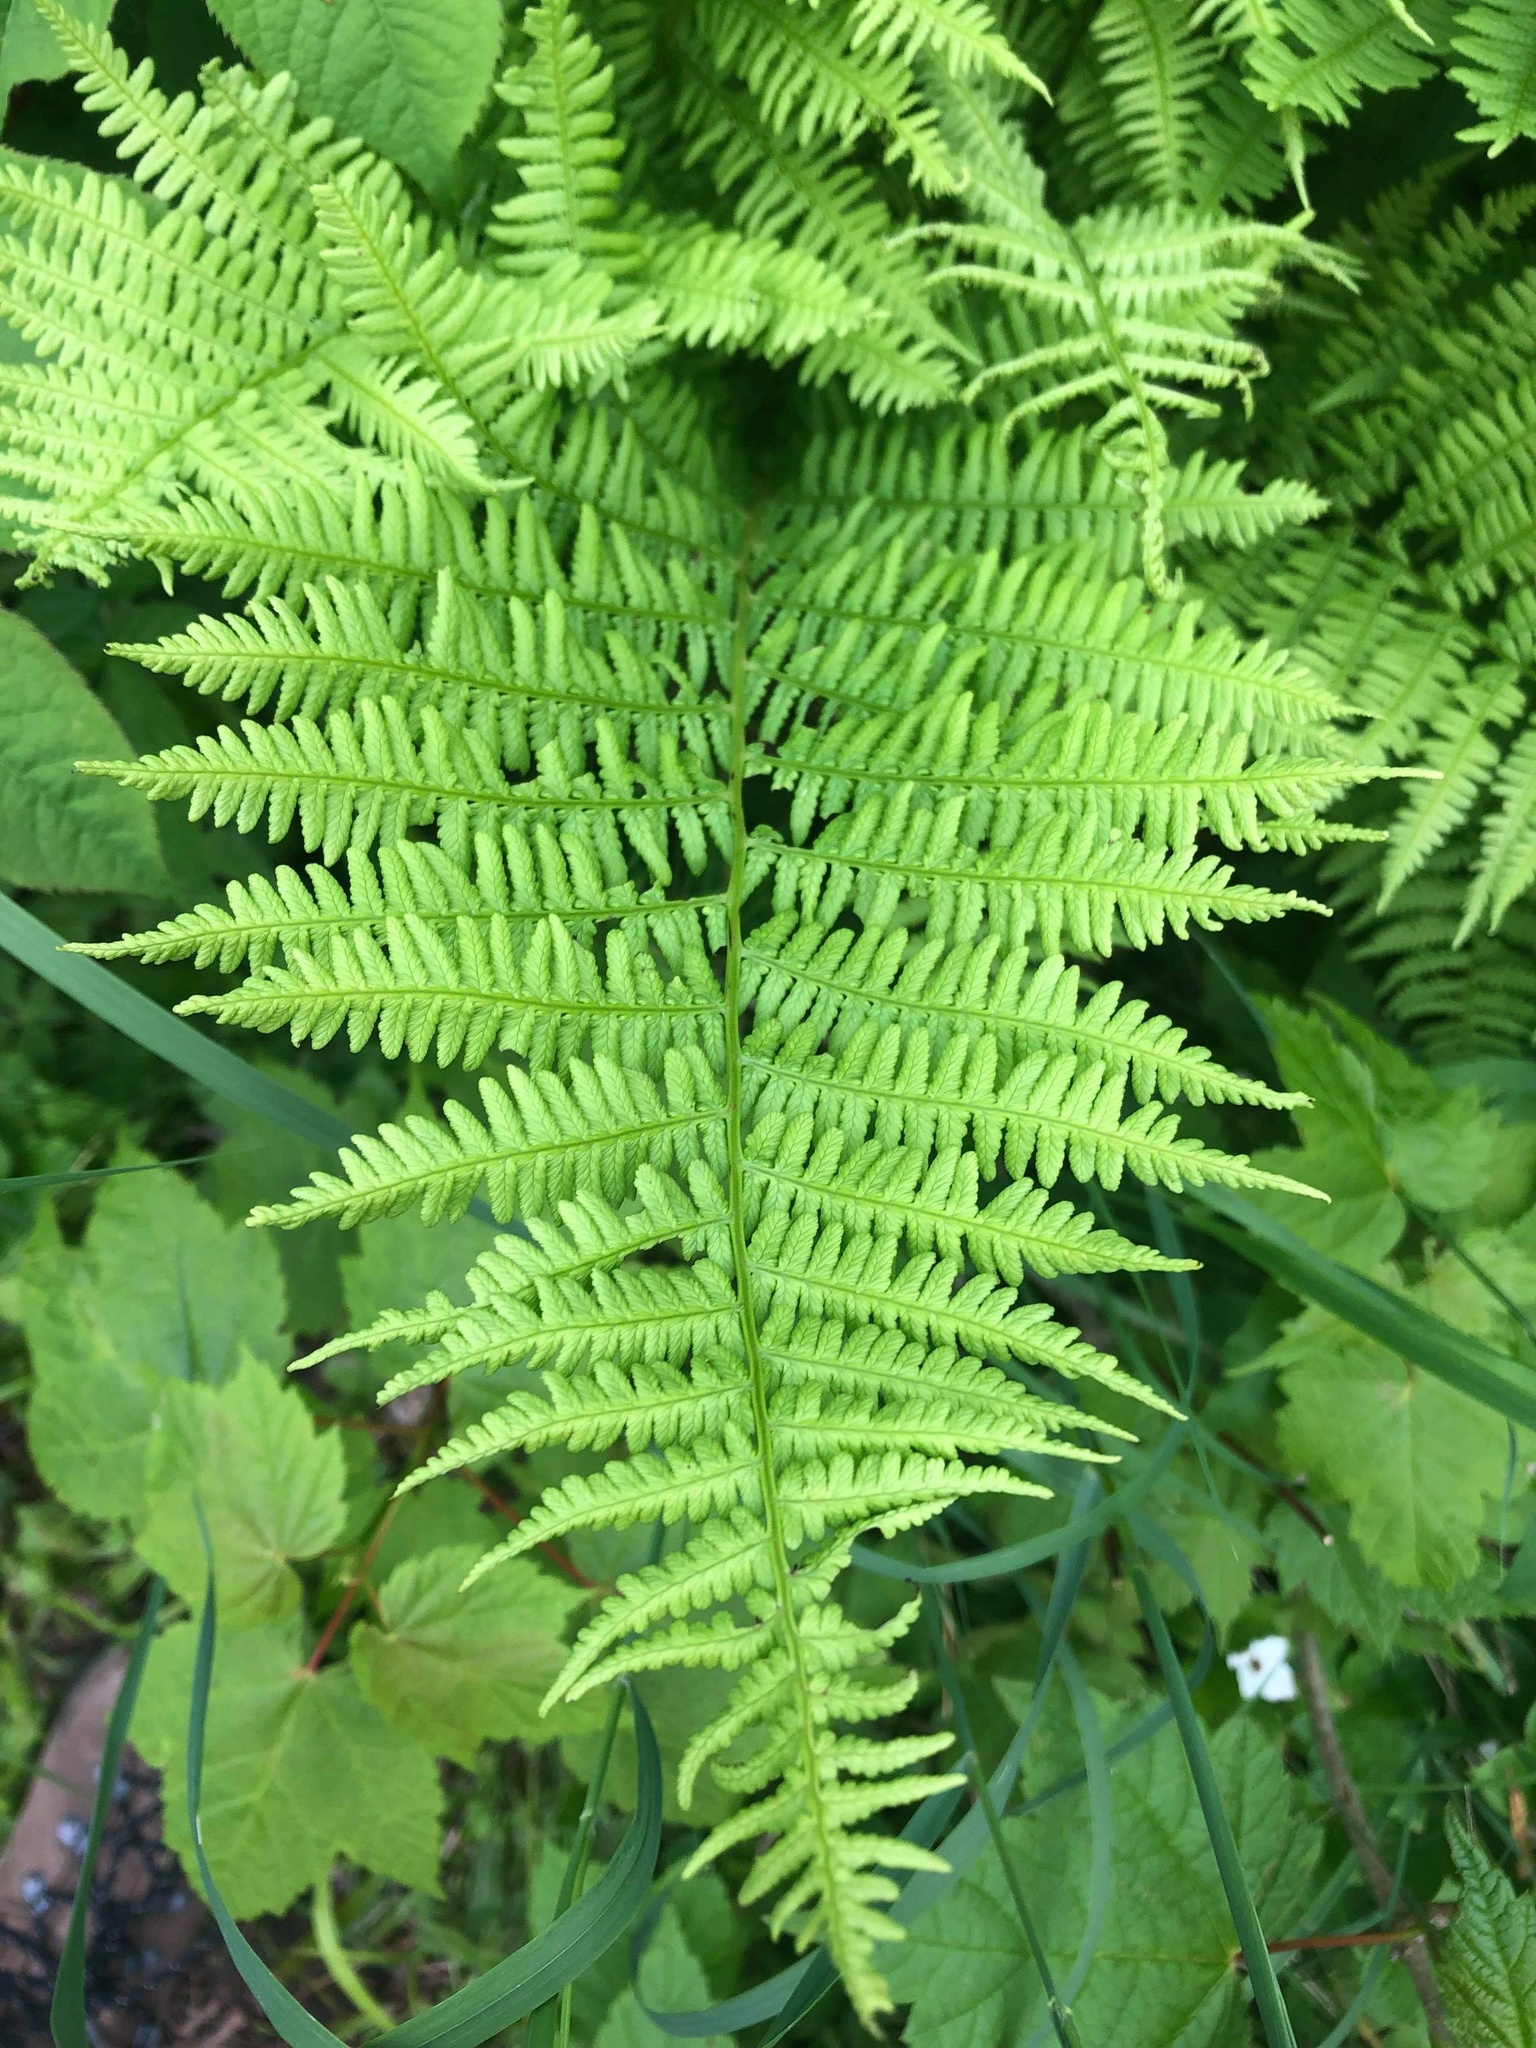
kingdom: Plantae
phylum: Tracheophyta
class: Polypodiopsida
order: Polypodiales
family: Athyriaceae
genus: Athyrium
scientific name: Athyrium angustum
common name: Northern lady fern
